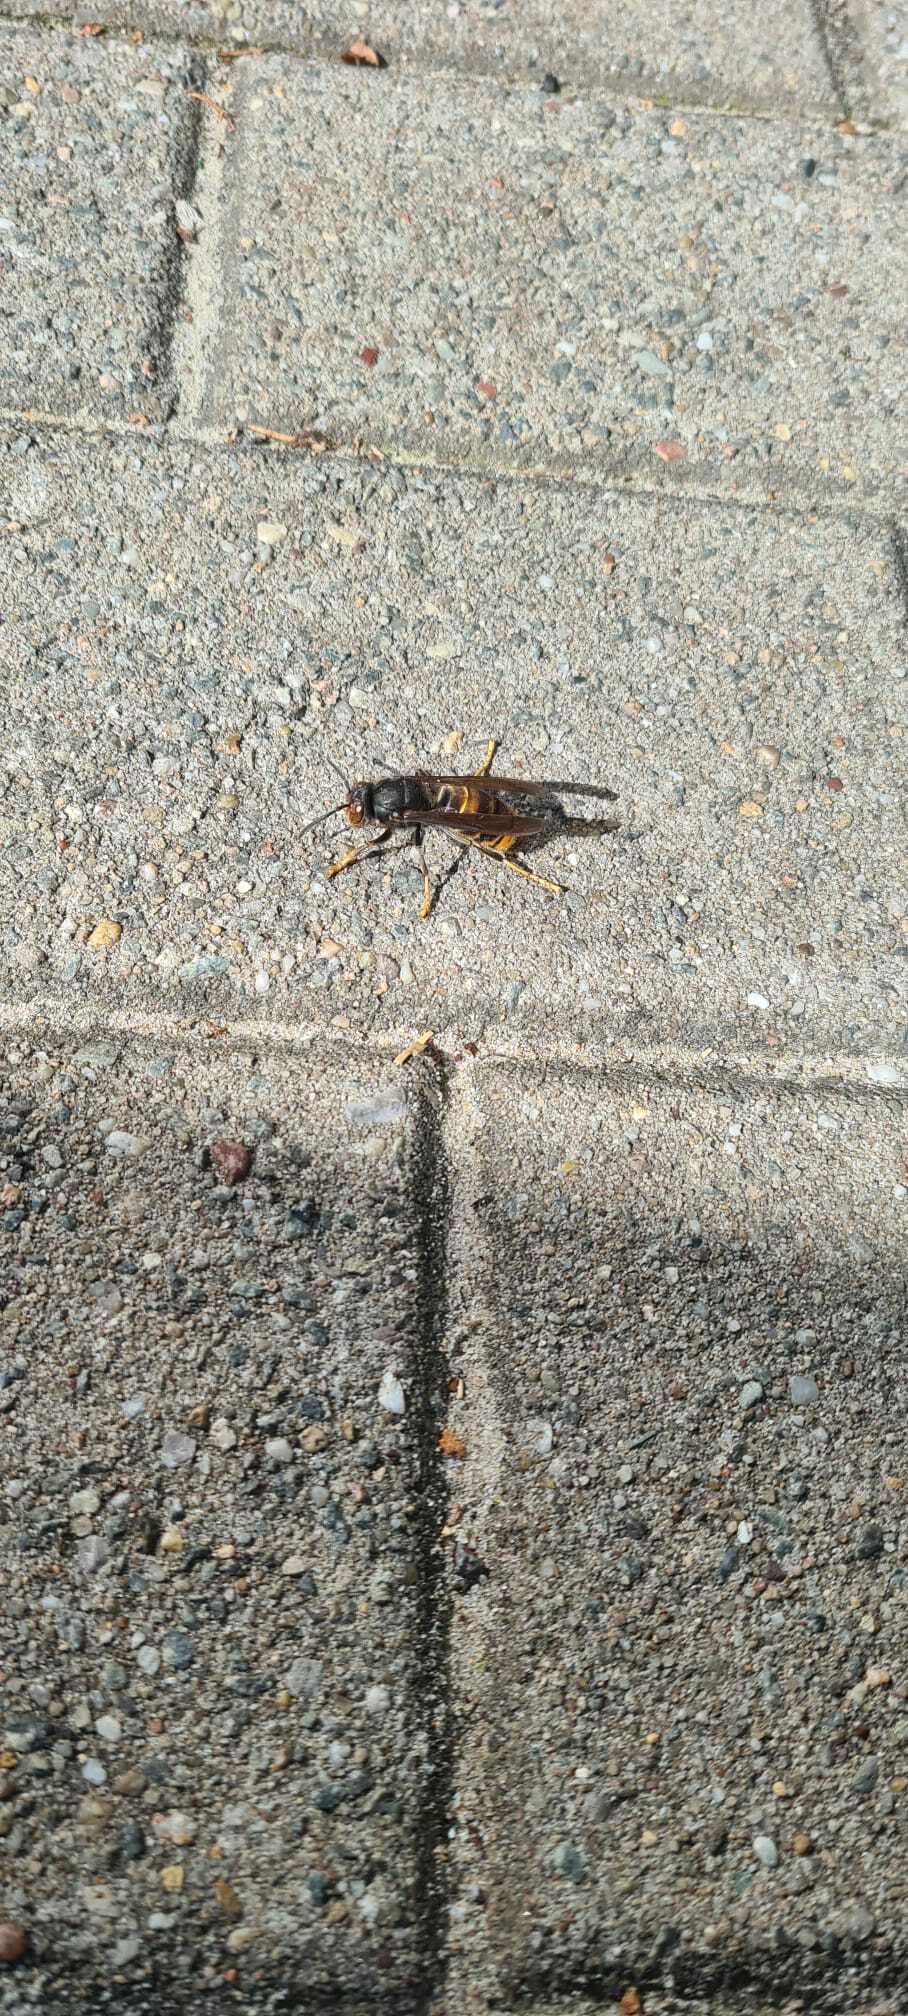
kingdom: Animalia
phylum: Arthropoda
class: Insecta
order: Hymenoptera
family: Vespidae
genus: Vespa
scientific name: Vespa velutina
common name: Asian hornet
